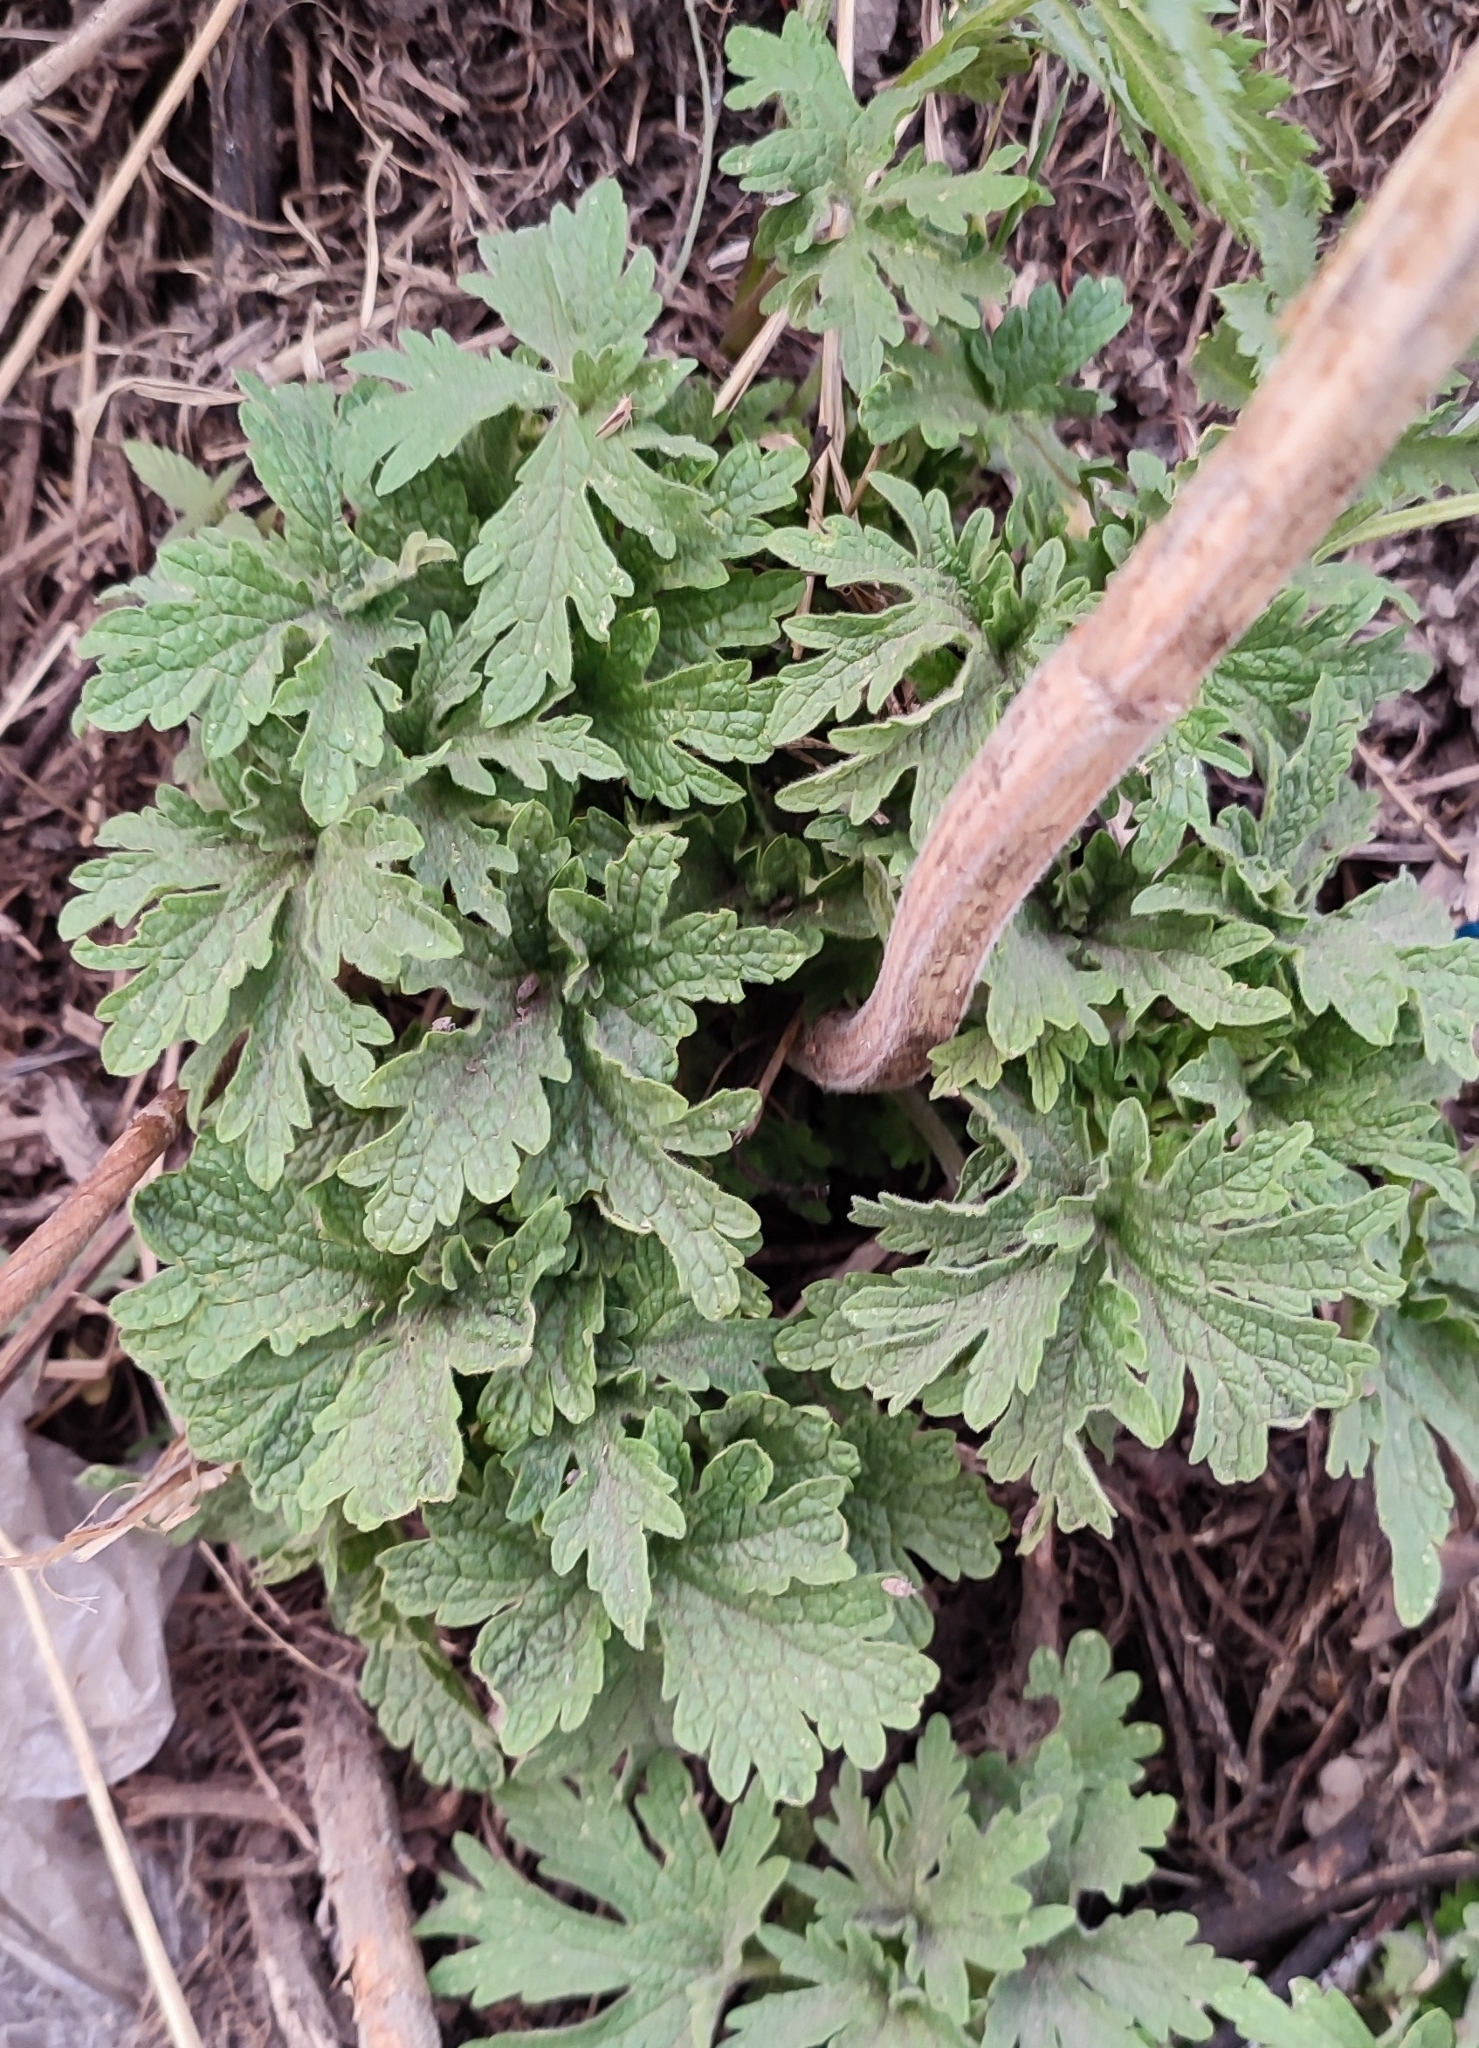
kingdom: Plantae
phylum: Tracheophyta
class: Magnoliopsida
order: Lamiales
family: Lamiaceae
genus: Leonurus
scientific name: Leonurus quinquelobatus
